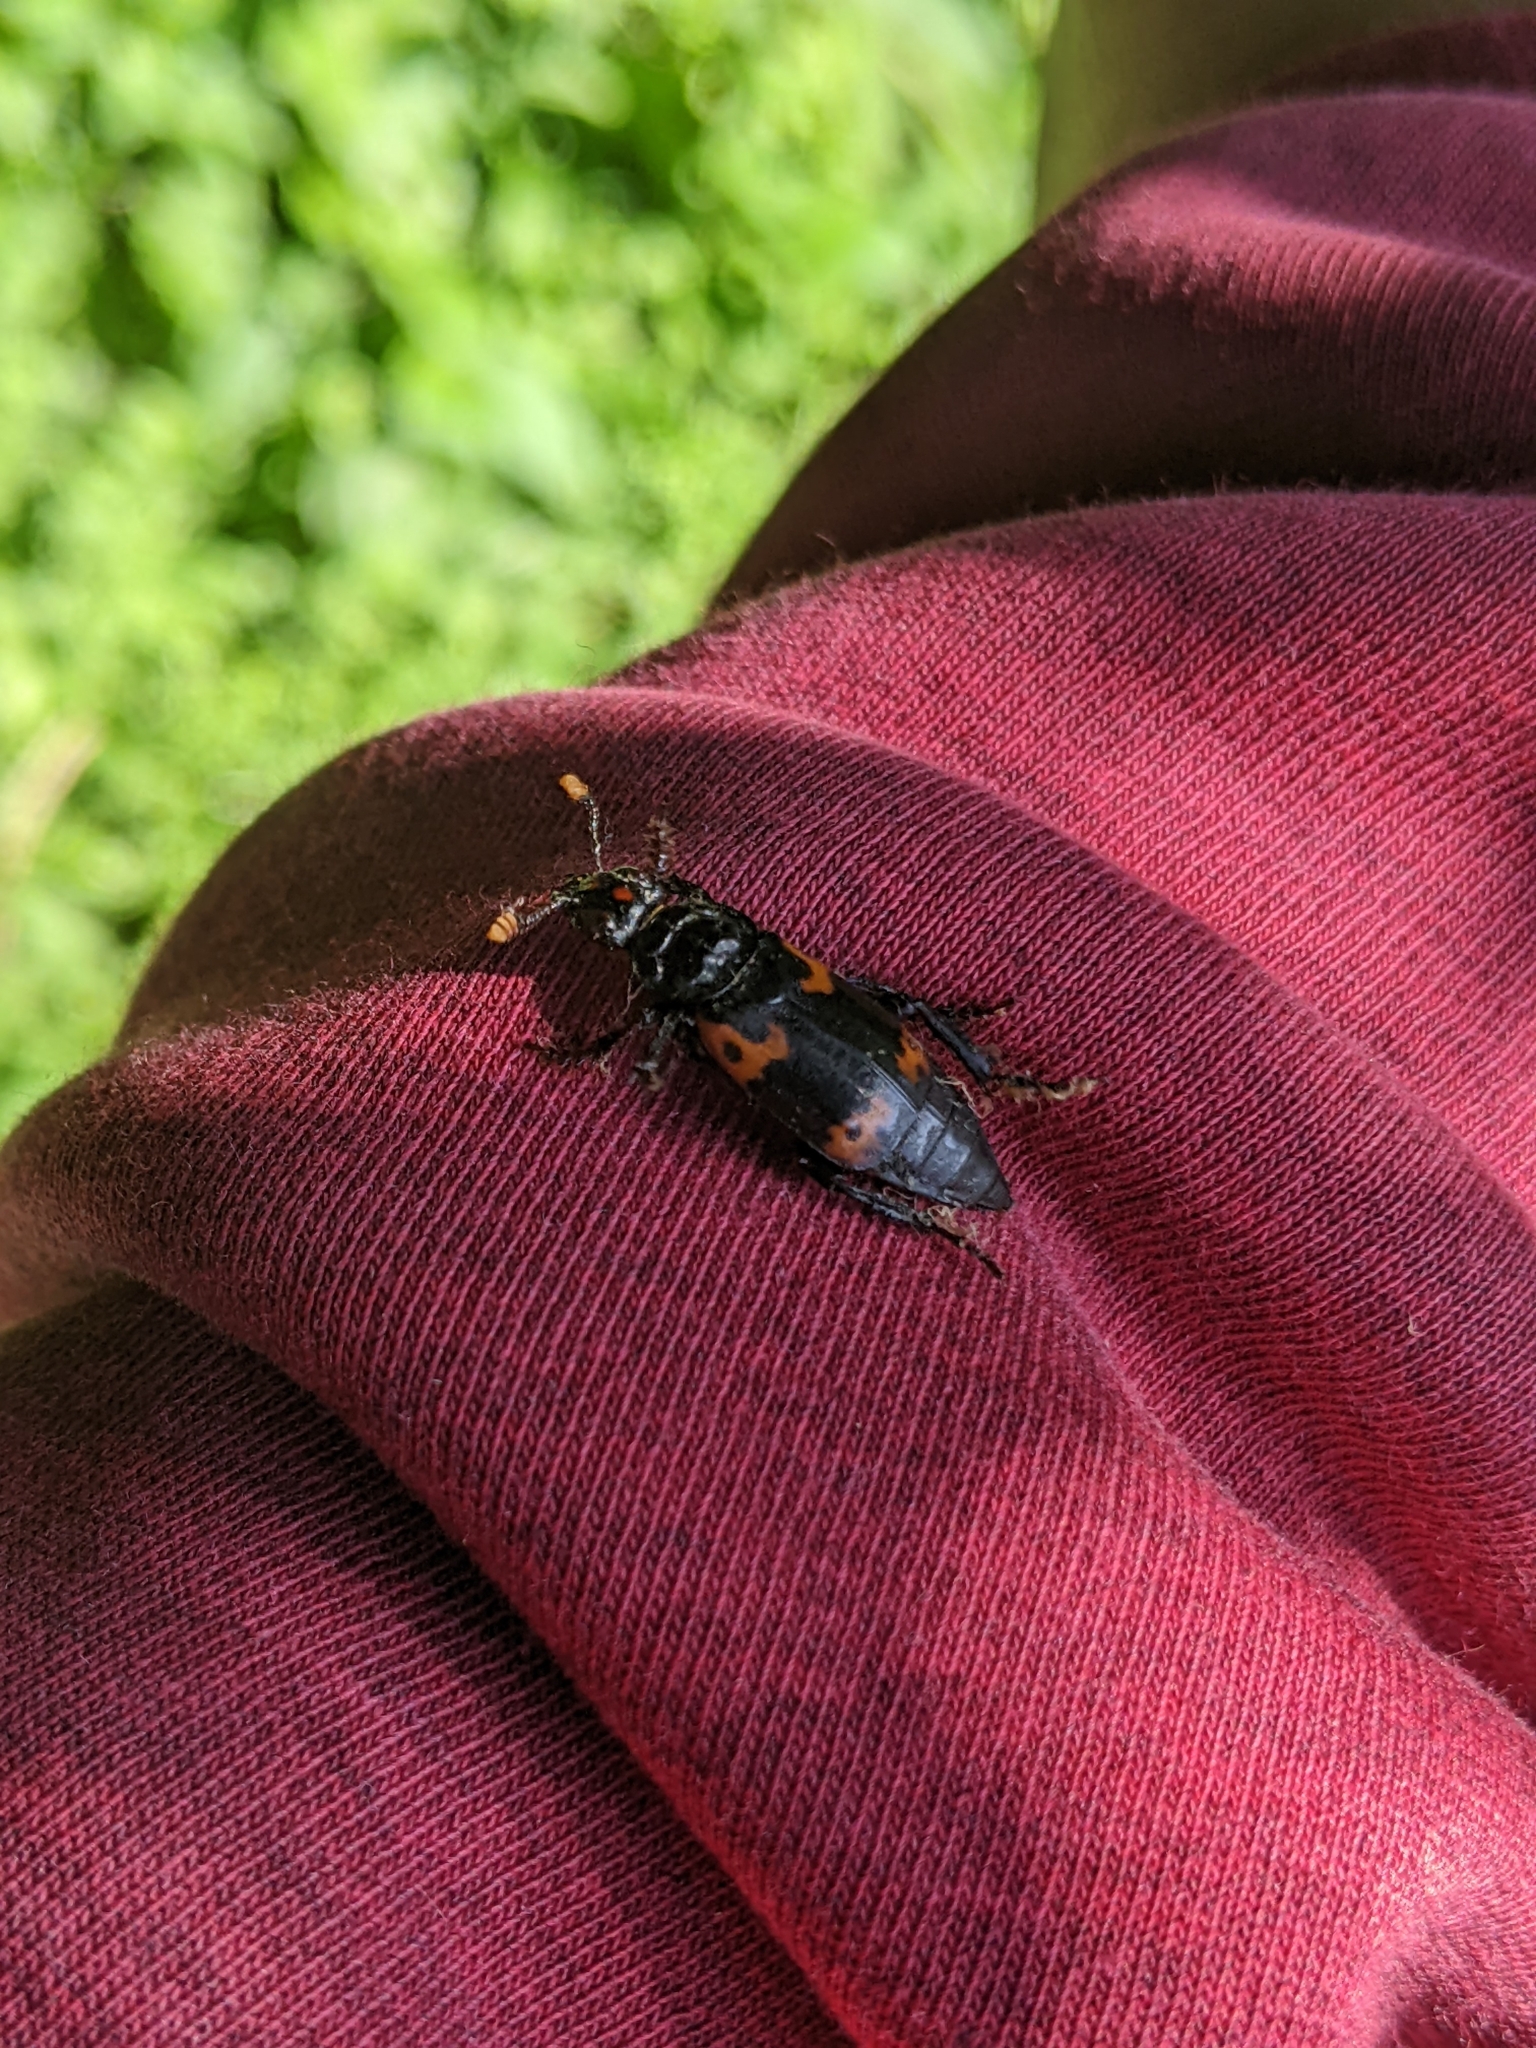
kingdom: Animalia
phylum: Arthropoda
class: Insecta
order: Coleoptera
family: Staphylinidae
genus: Nicrophorus
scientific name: Nicrophorus nepalensis
